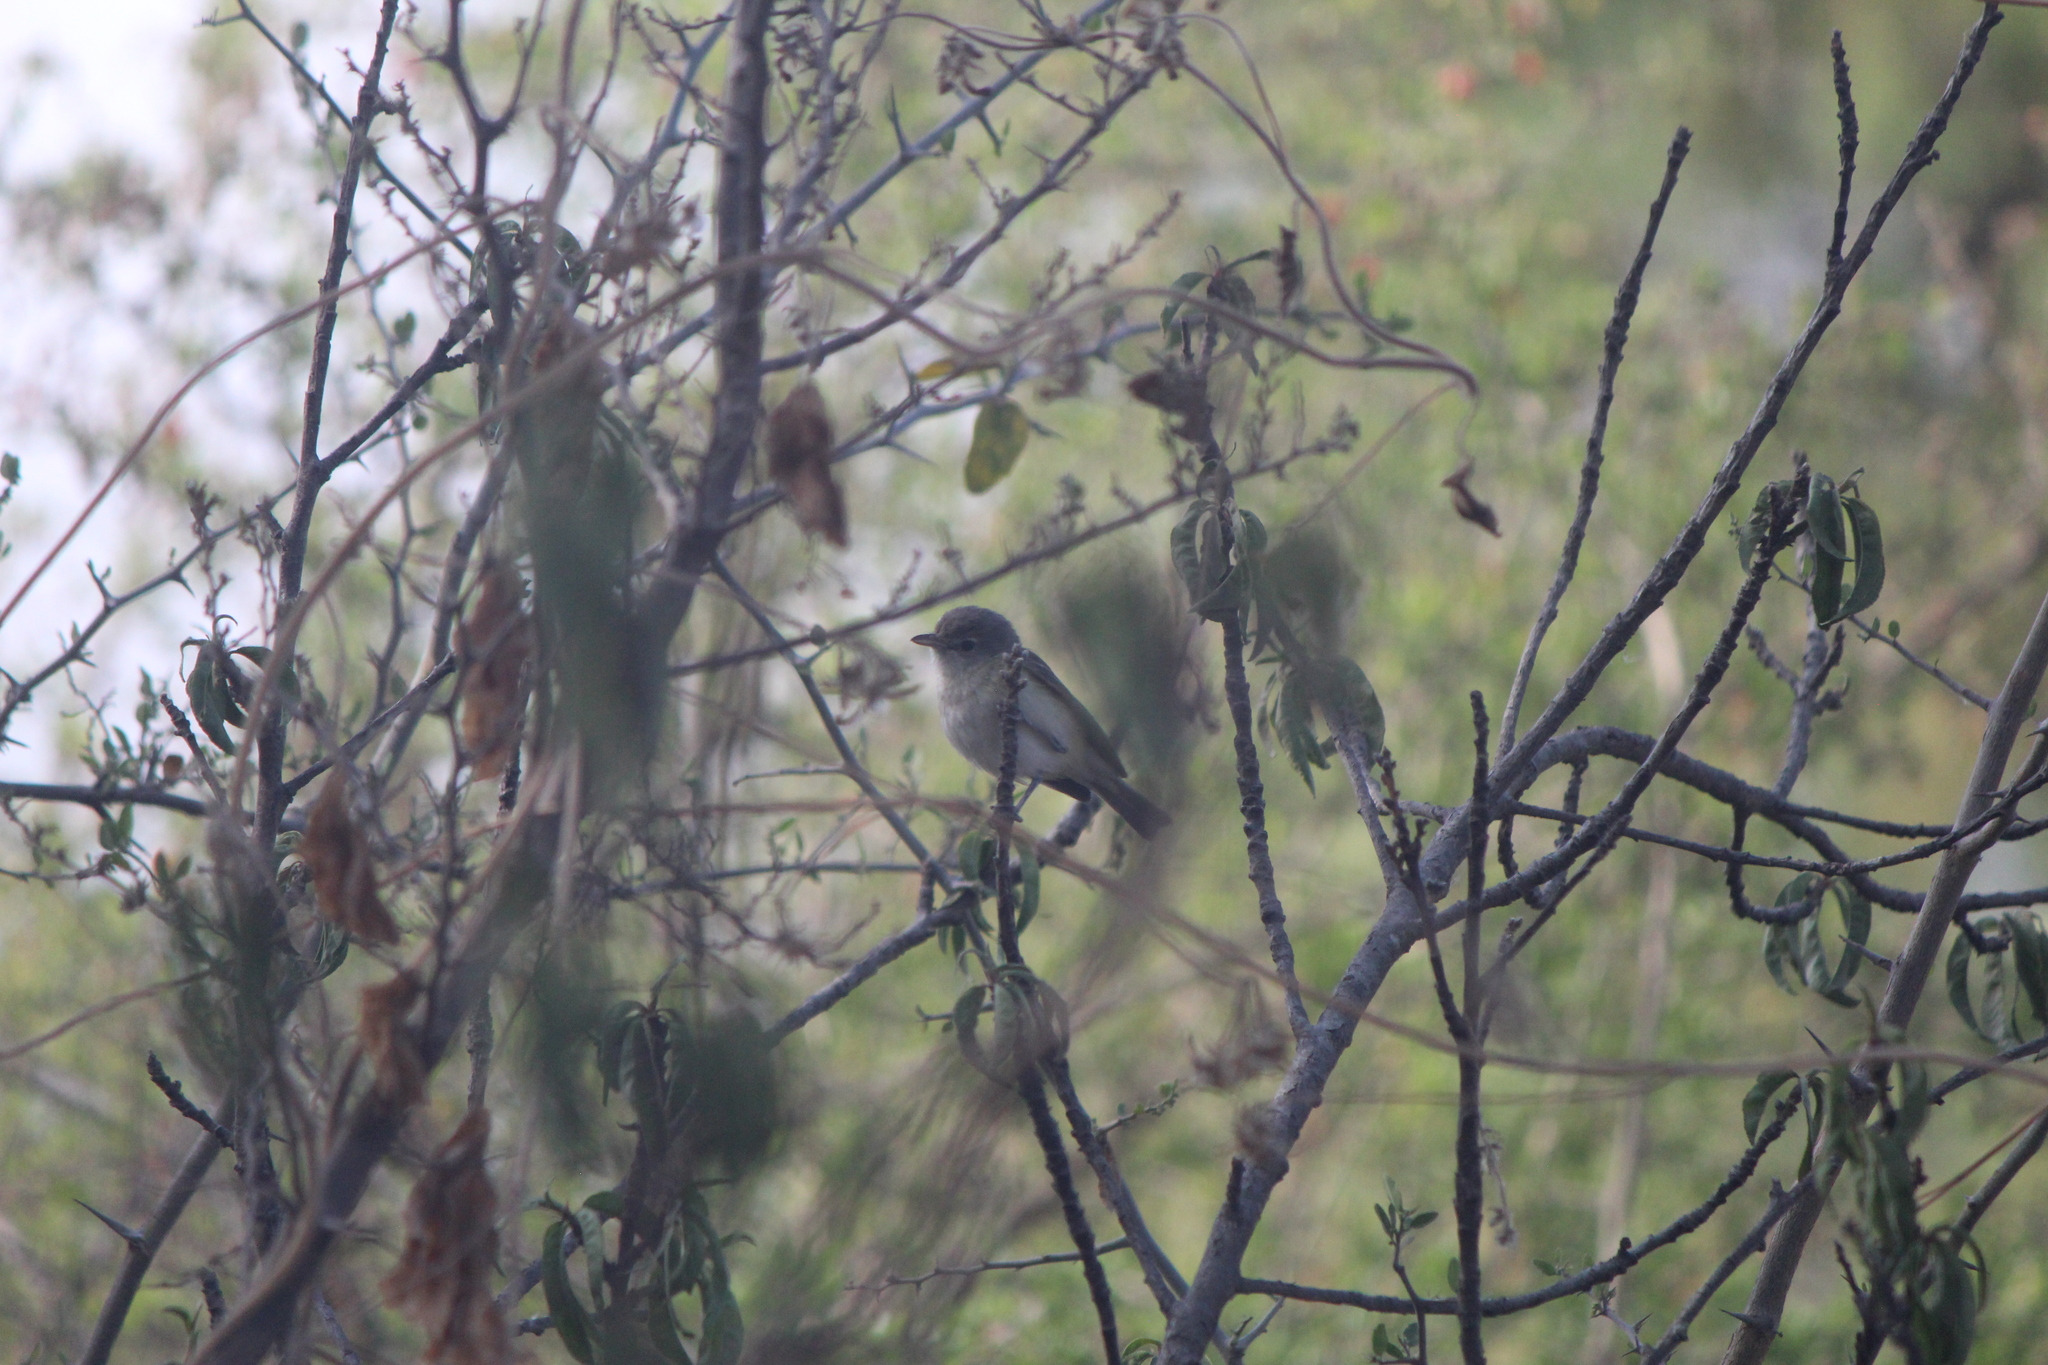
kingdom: Animalia
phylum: Chordata
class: Aves
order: Passeriformes
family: Vireonidae
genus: Vireo
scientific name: Vireo bellii
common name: Bell's vireo
